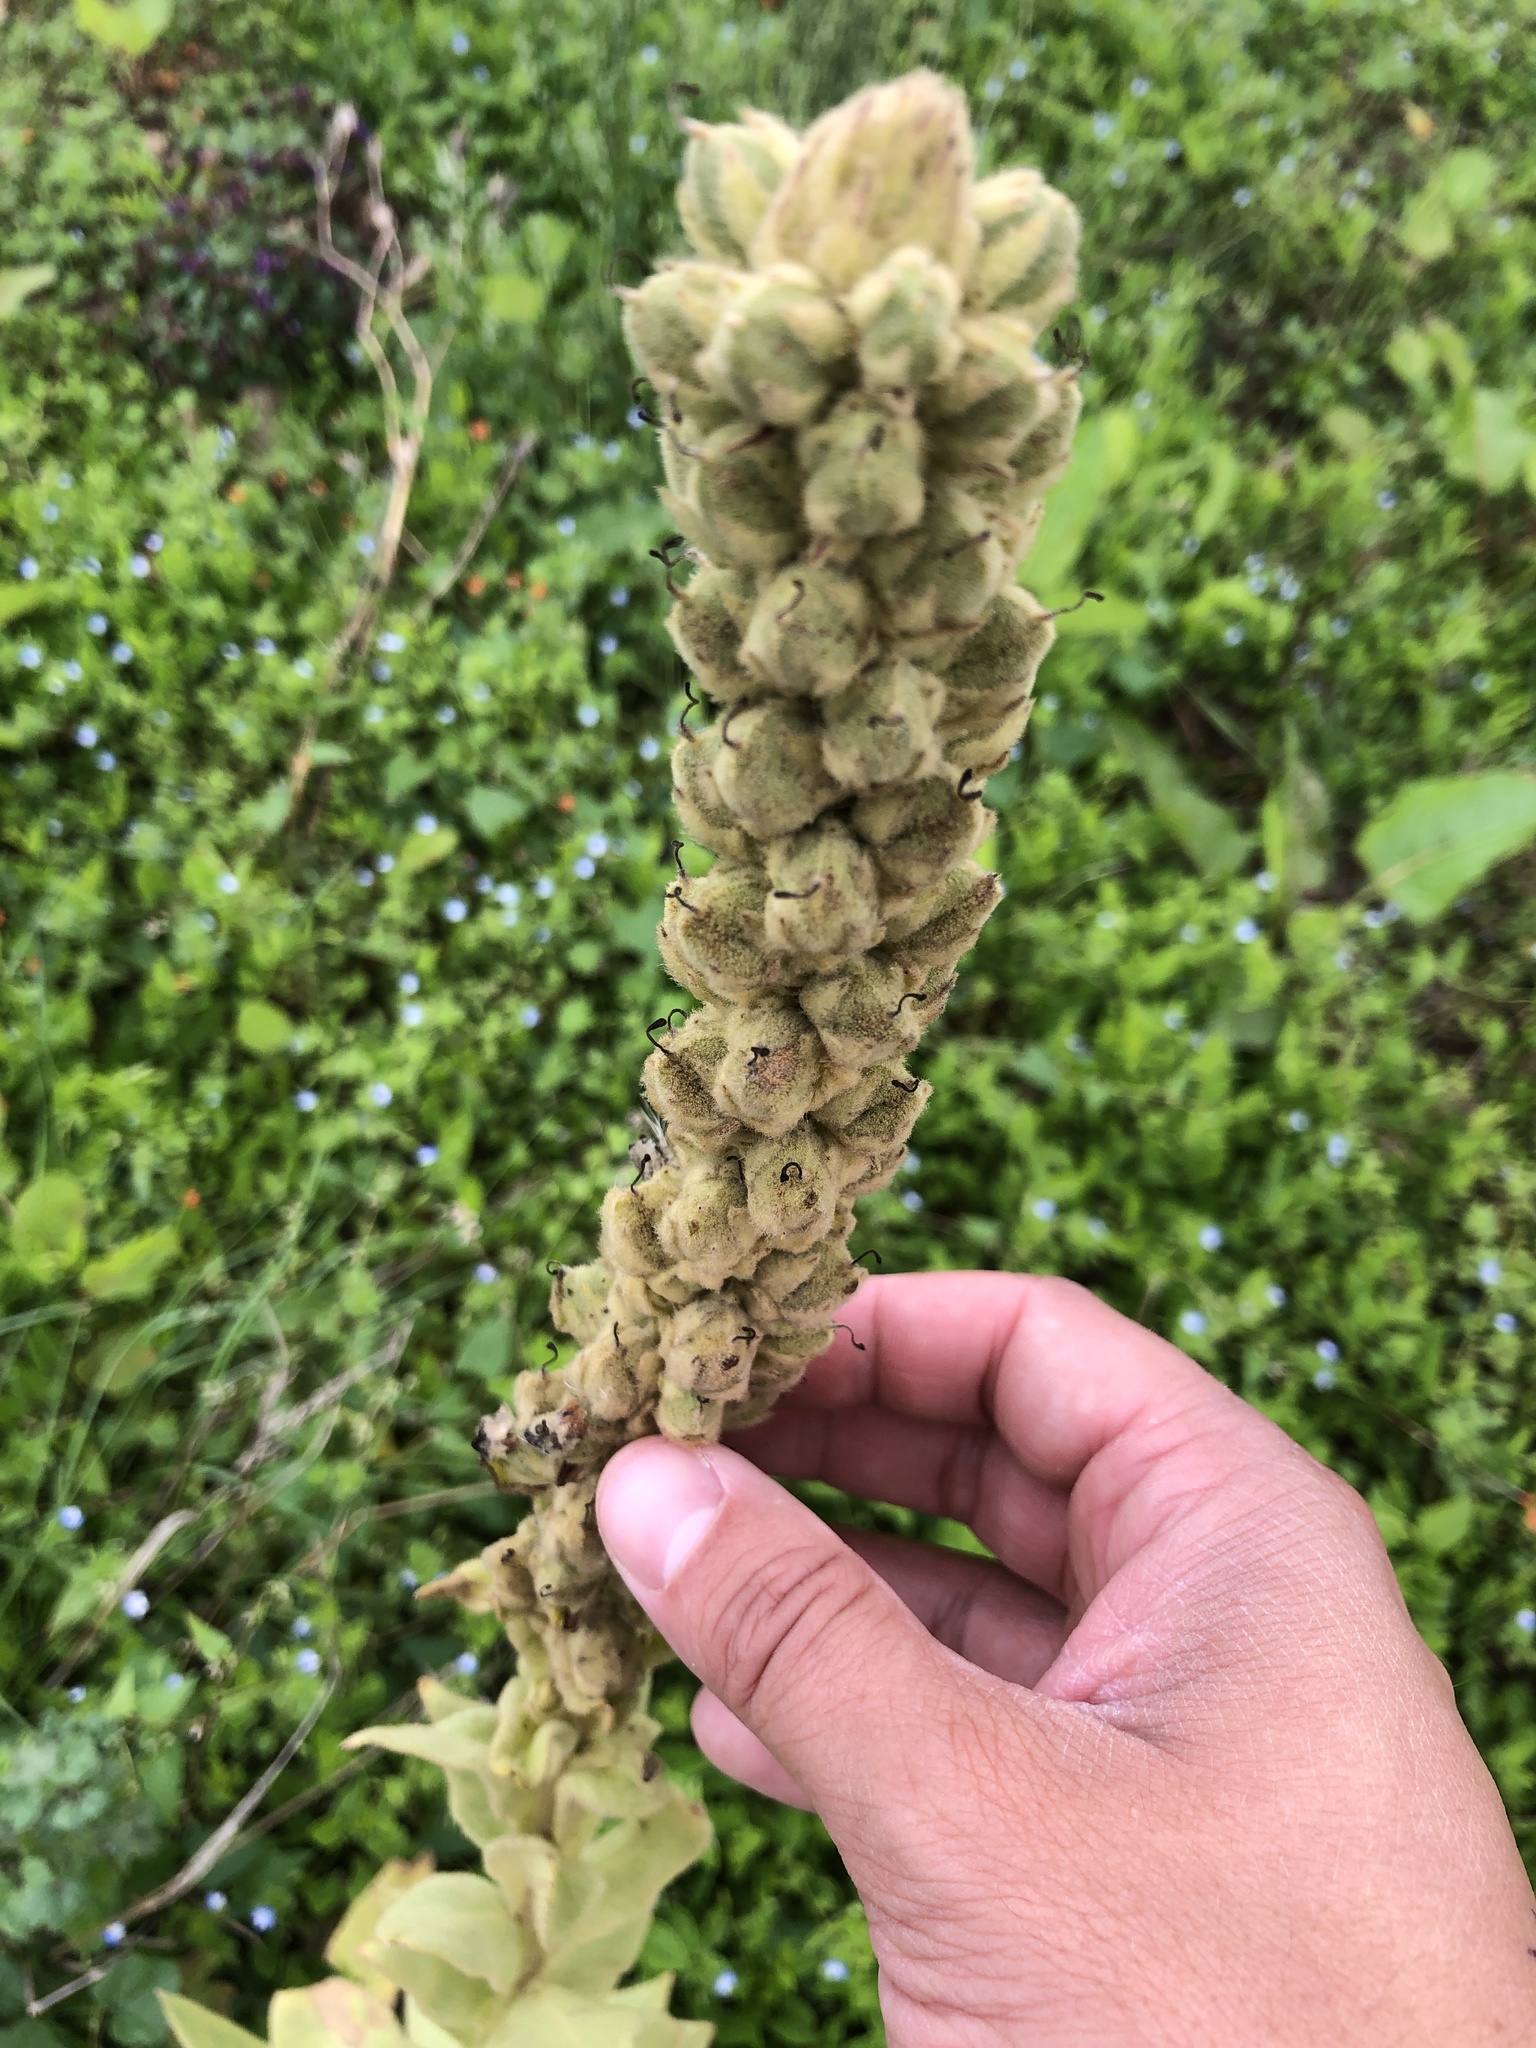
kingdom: Plantae
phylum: Tracheophyta
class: Magnoliopsida
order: Lamiales
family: Scrophulariaceae
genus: Verbascum
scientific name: Verbascum thapsus
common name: Common mullein
